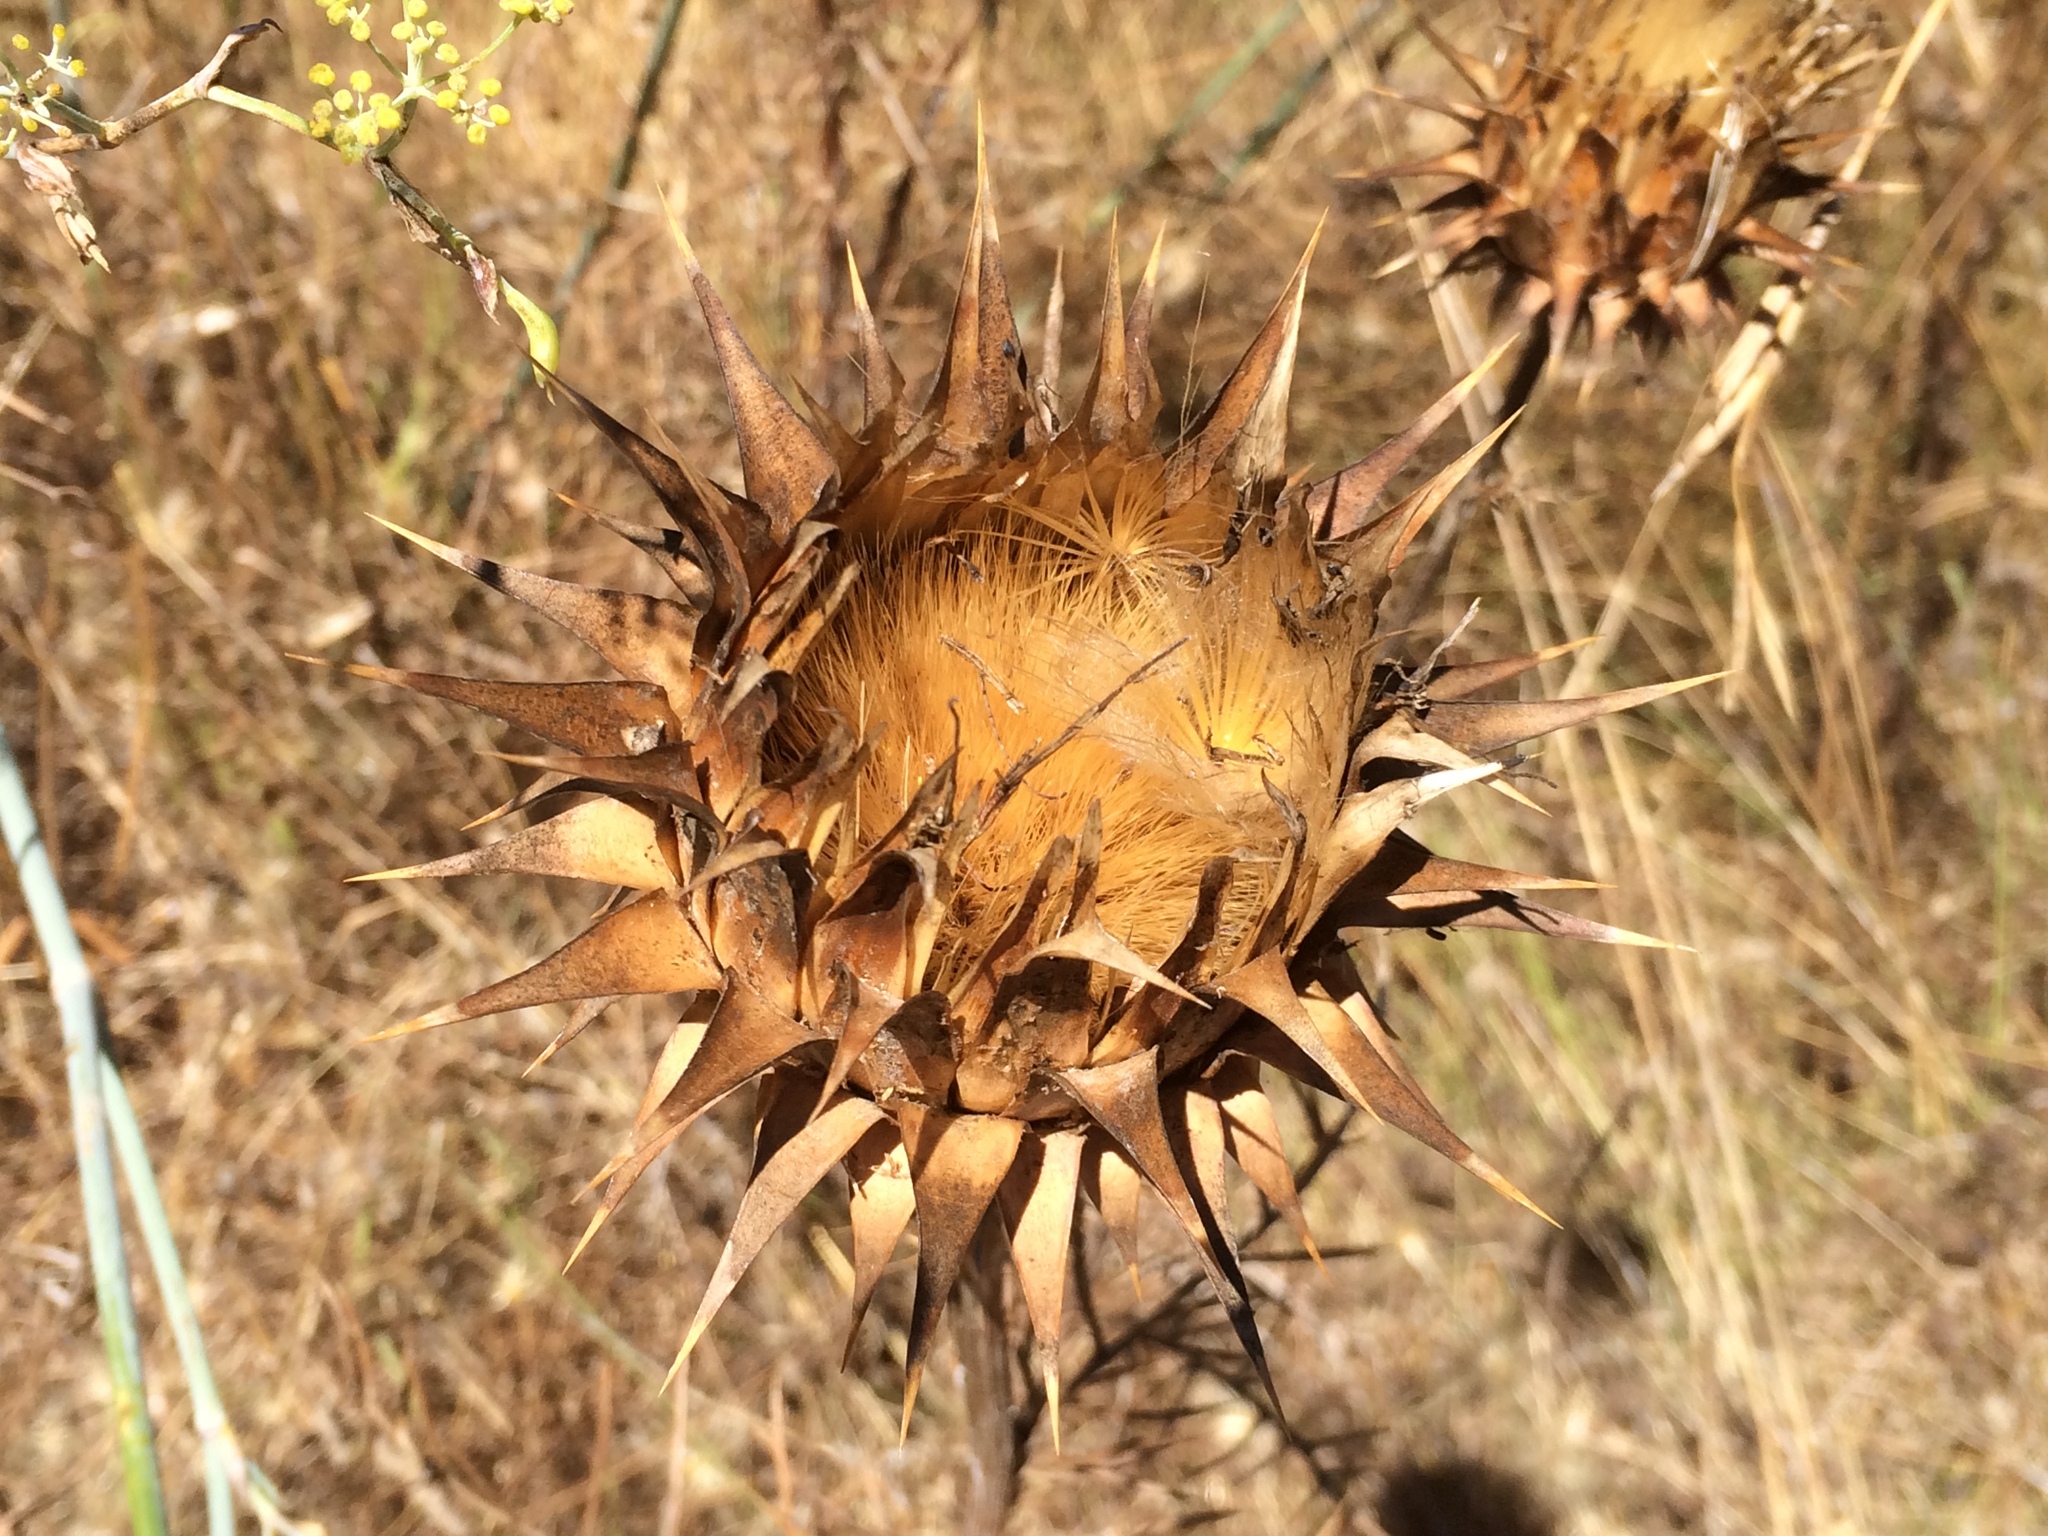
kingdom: Plantae
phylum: Tracheophyta
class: Magnoliopsida
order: Asterales
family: Asteraceae
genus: Cynara
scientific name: Cynara humilis
